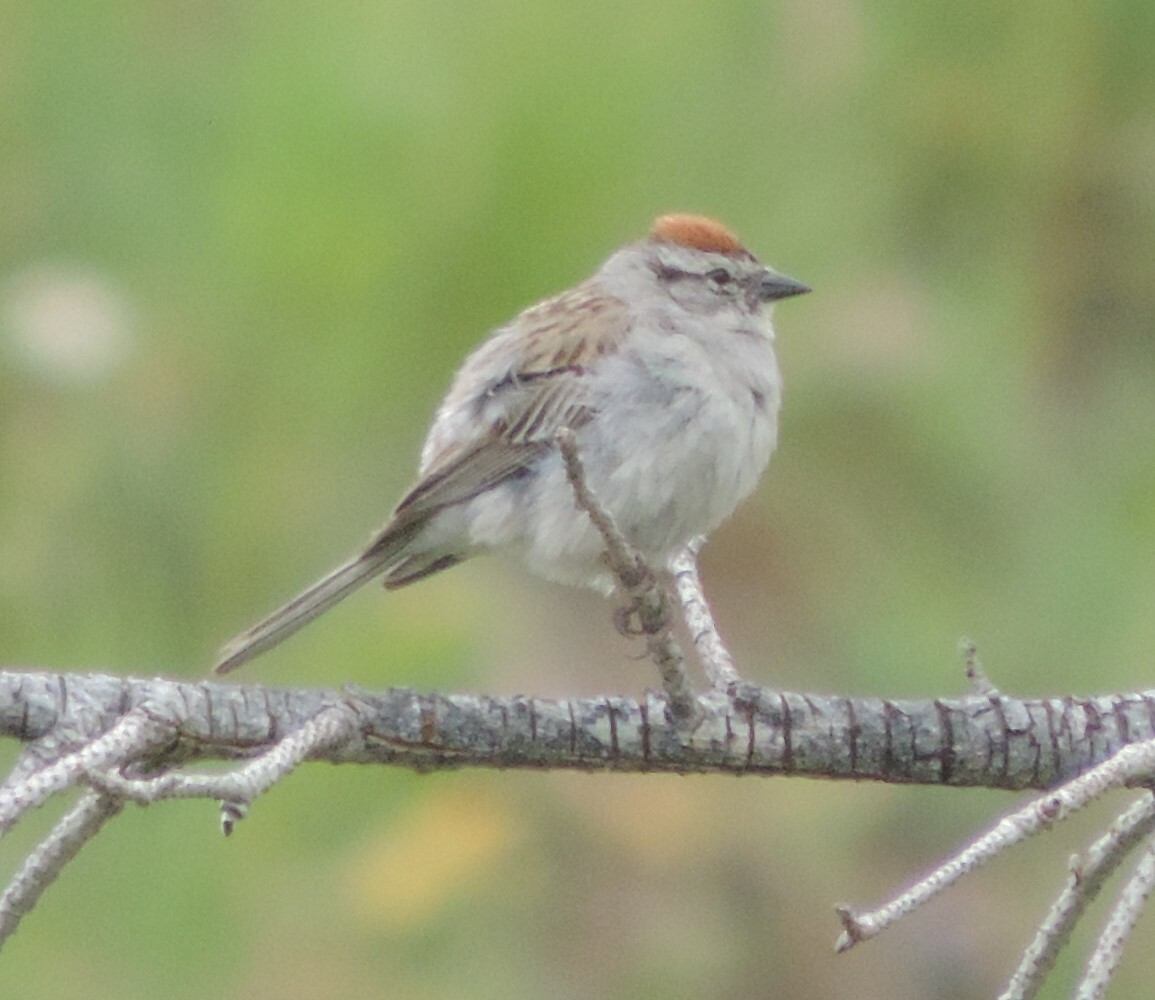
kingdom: Animalia
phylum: Chordata
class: Aves
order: Passeriformes
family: Passerellidae
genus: Spizella
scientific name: Spizella passerina
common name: Chipping sparrow
